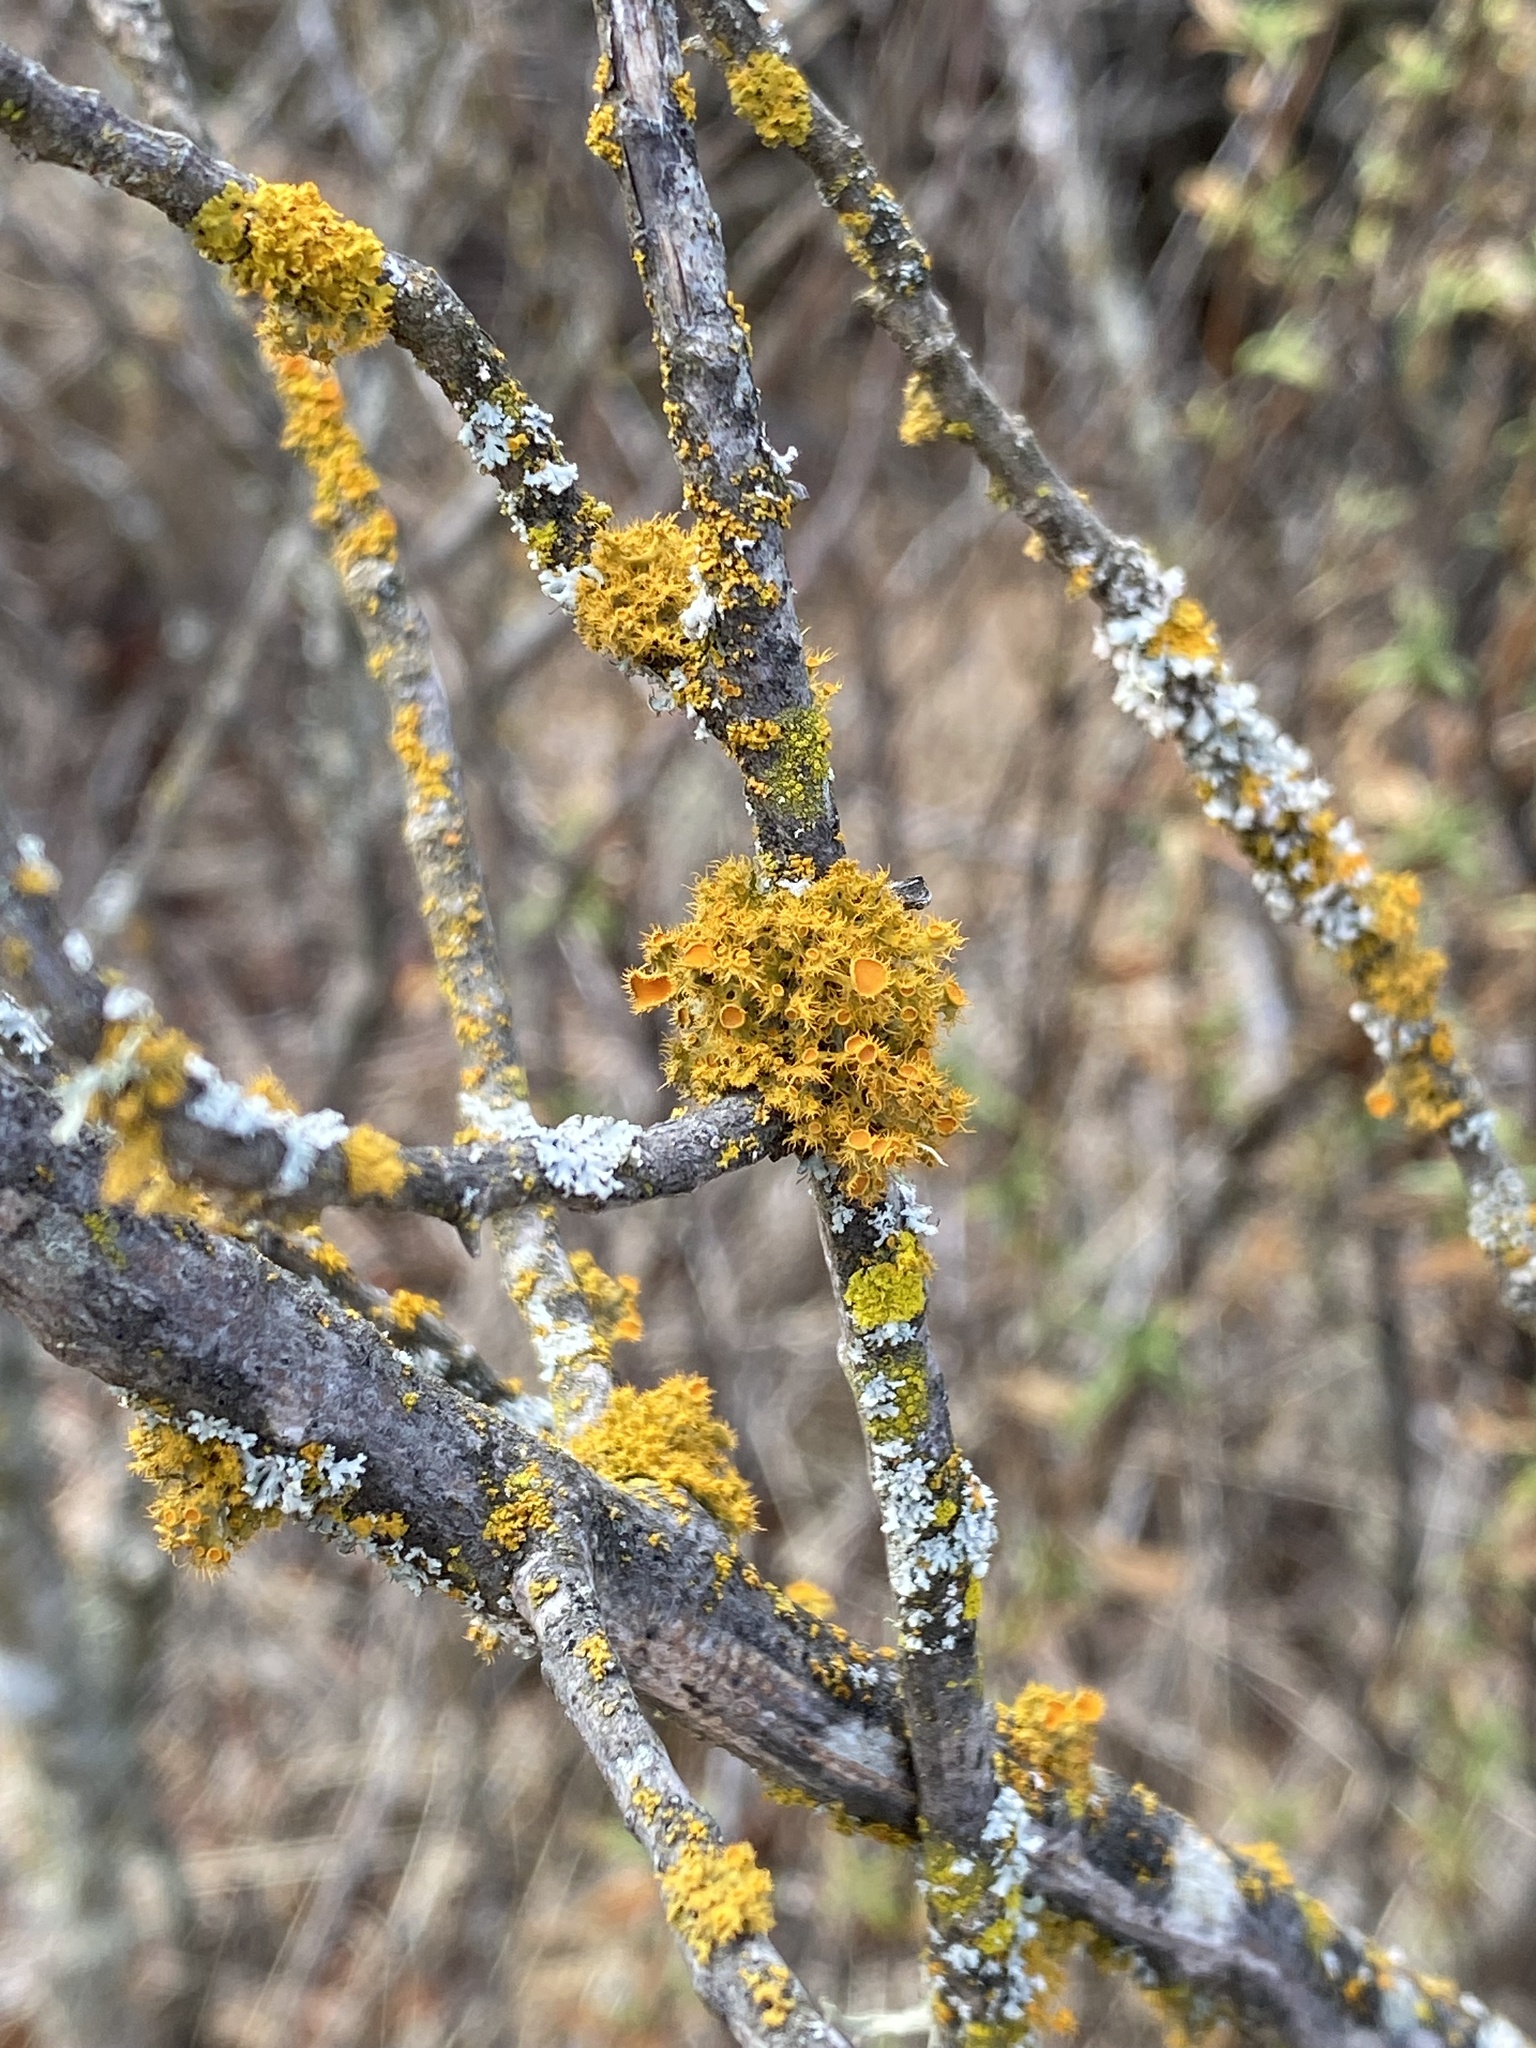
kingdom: Fungi
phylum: Ascomycota
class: Lecanoromycetes
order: Teloschistales
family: Teloschistaceae
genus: Niorma
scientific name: Niorma chrysophthalma
